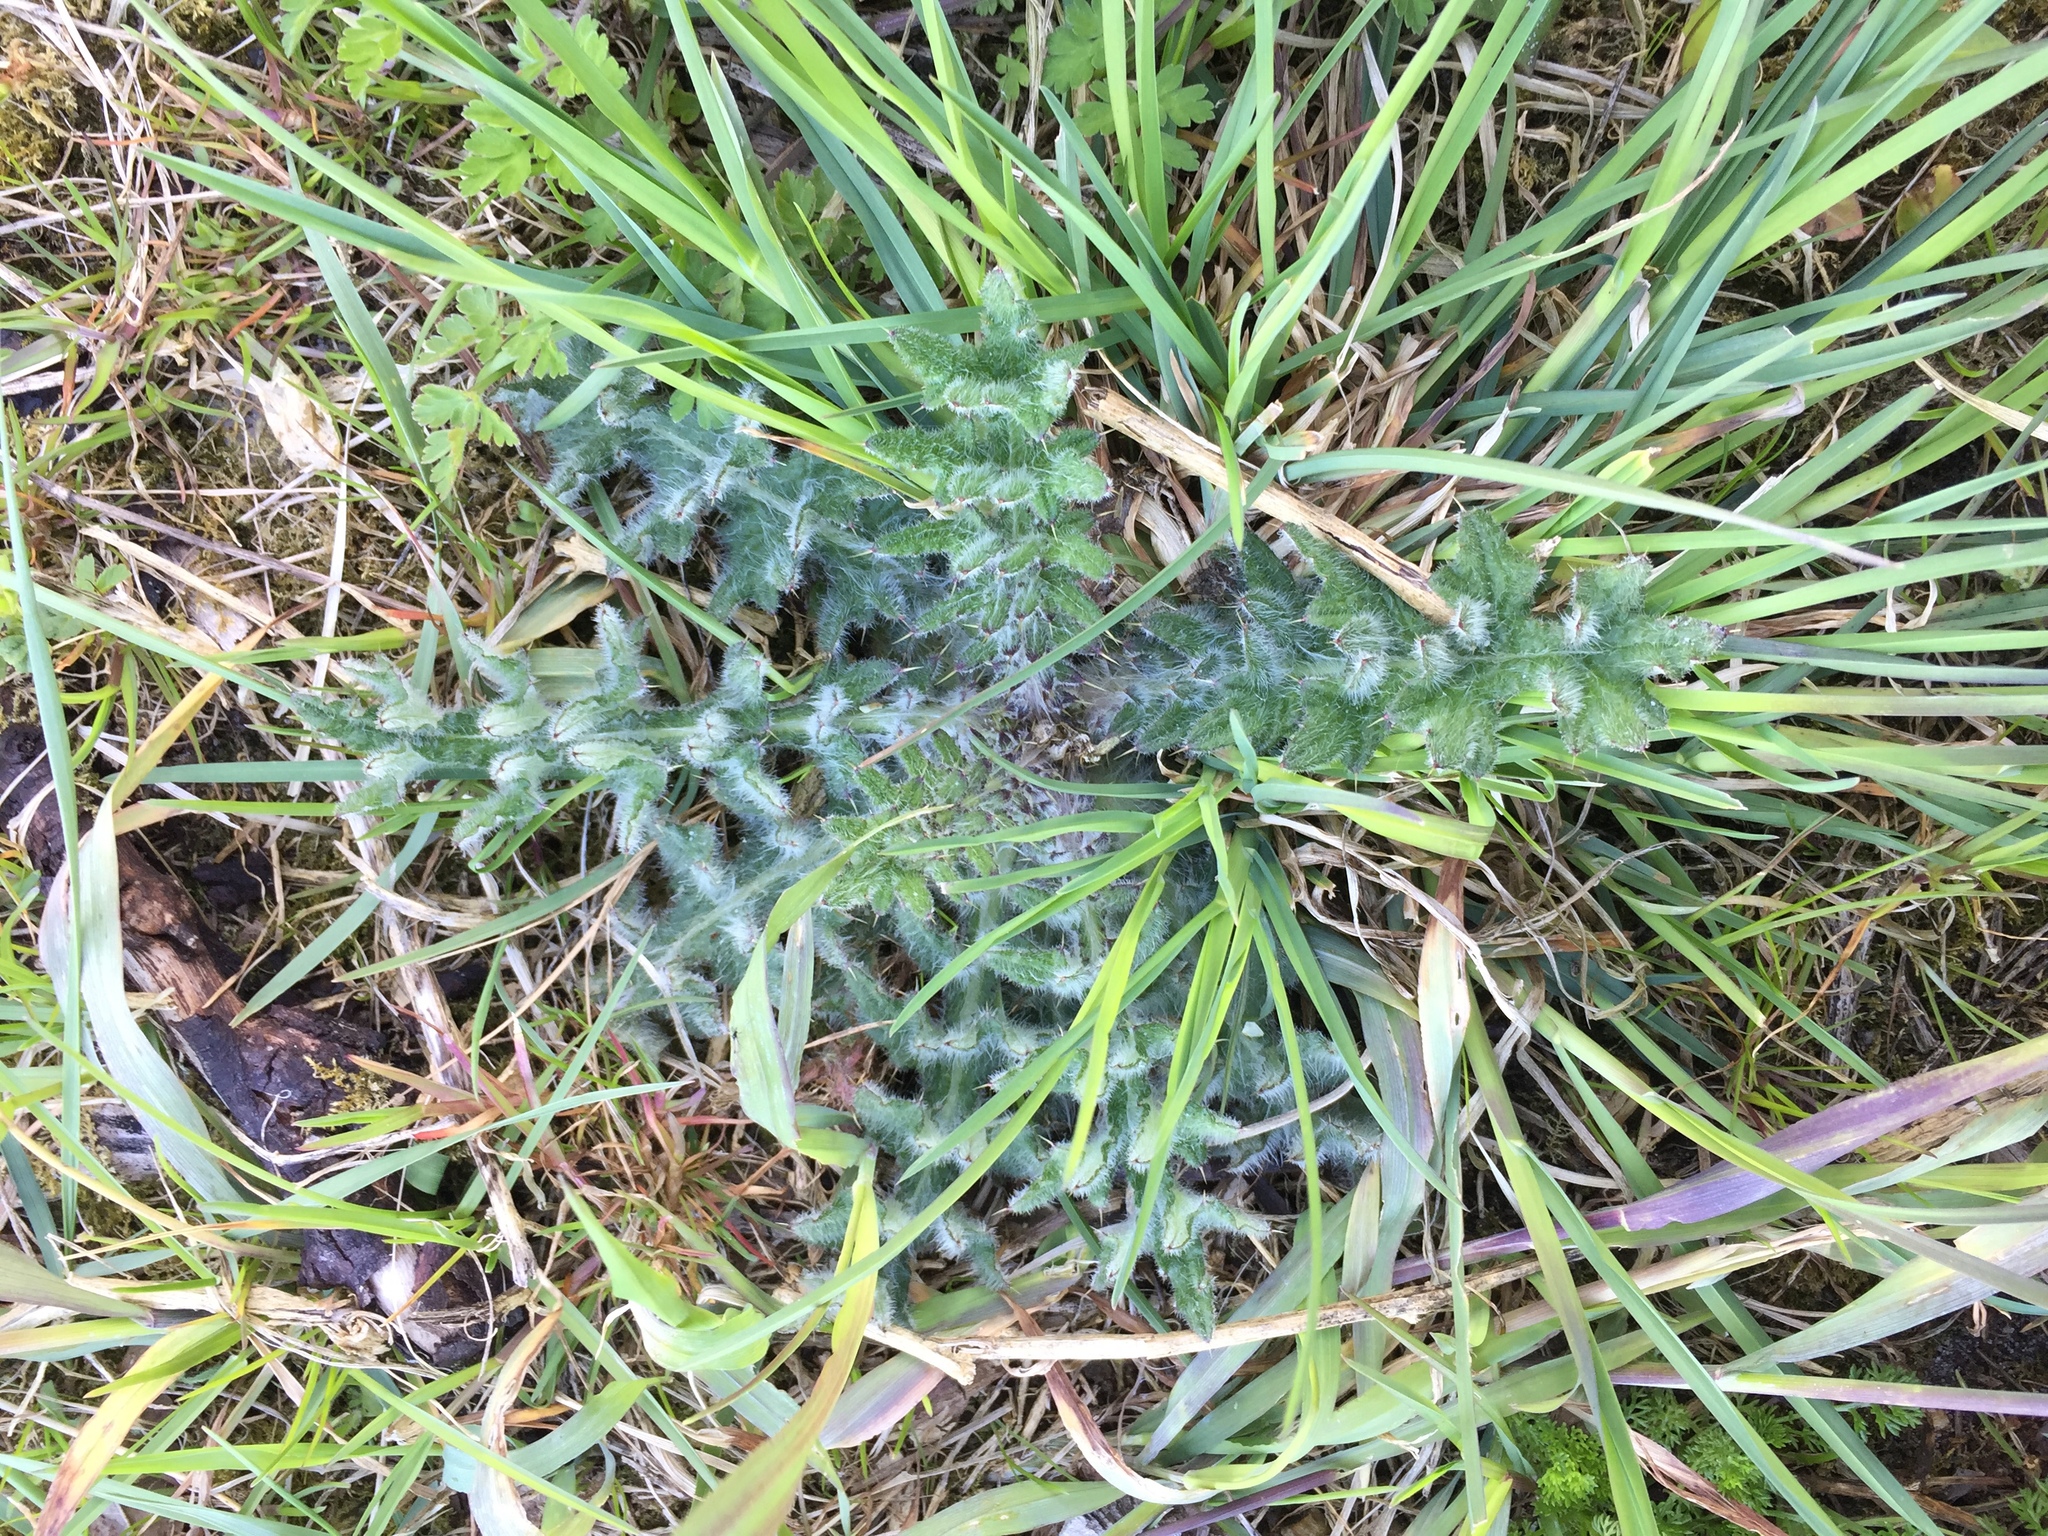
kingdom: Plantae
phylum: Tracheophyta
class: Magnoliopsida
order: Asterales
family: Asteraceae
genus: Cirsium
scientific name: Cirsium vulgare
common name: Bull thistle
